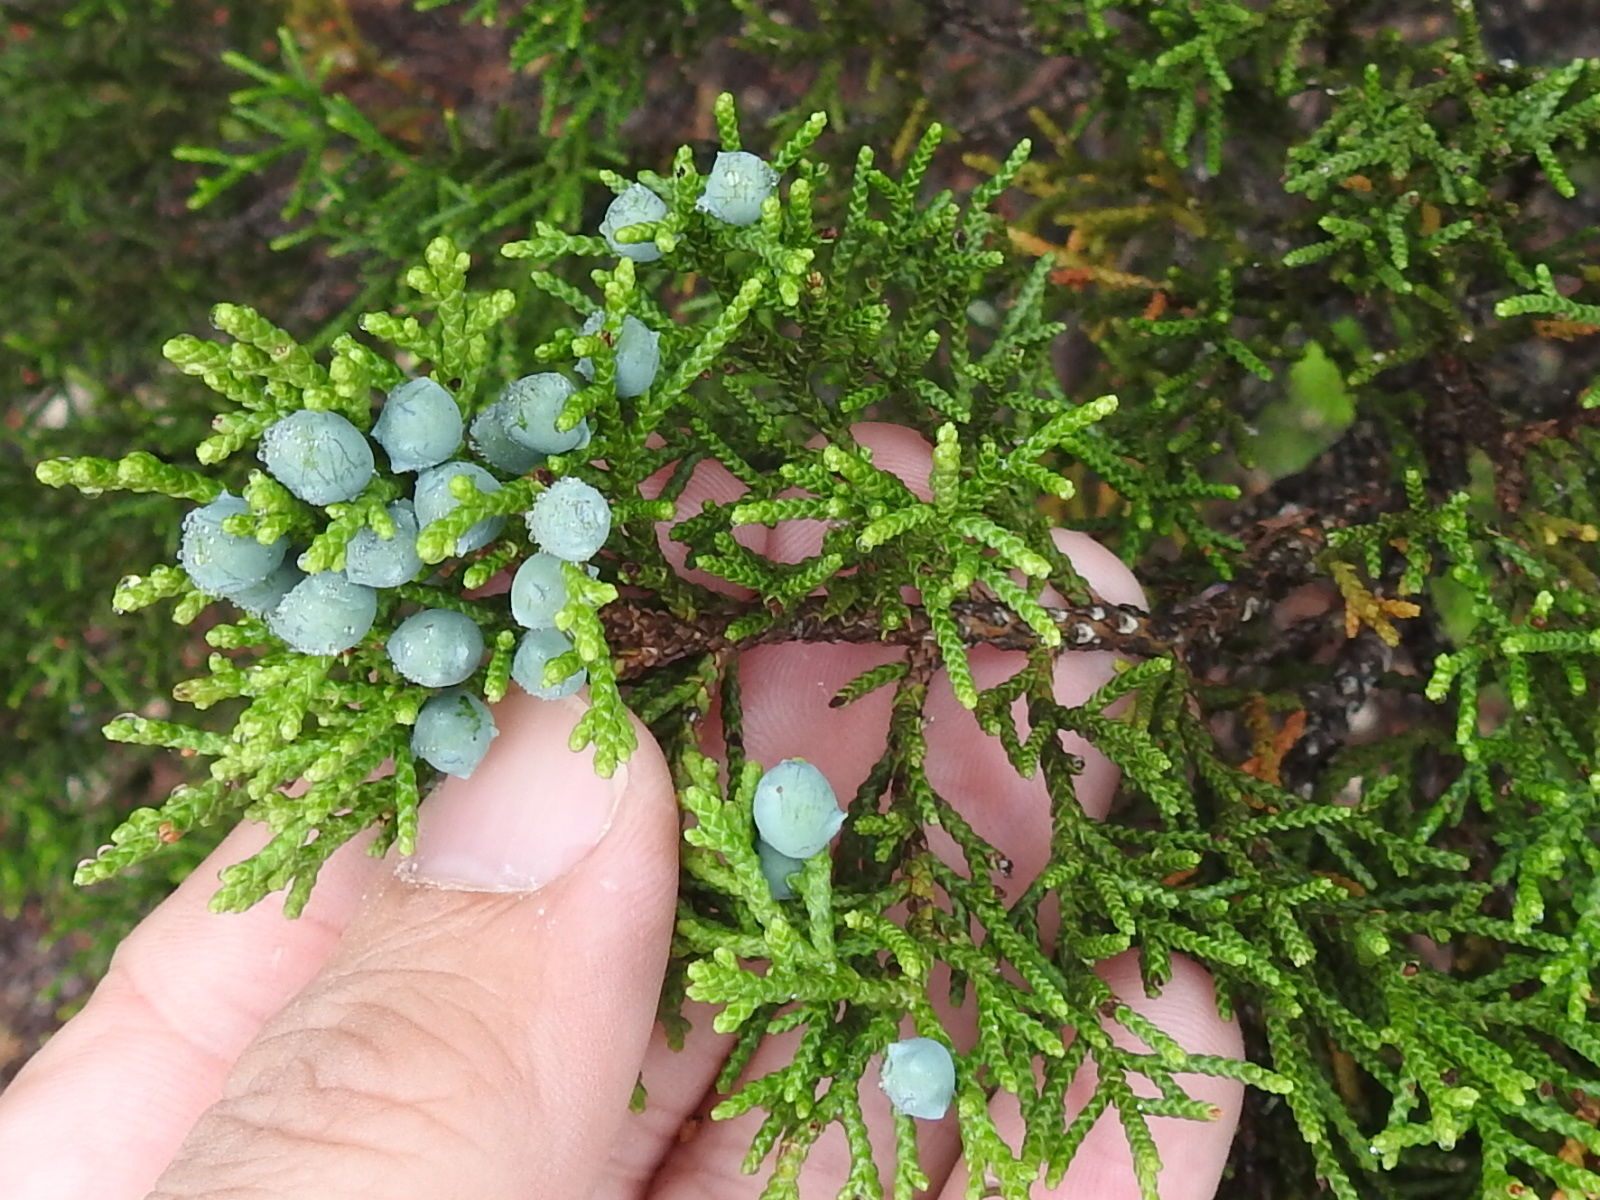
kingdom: Plantae
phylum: Tracheophyta
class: Pinopsida
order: Pinales
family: Cupressaceae
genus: Juniperus
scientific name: Juniperus ashei
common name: Mexican juniper
